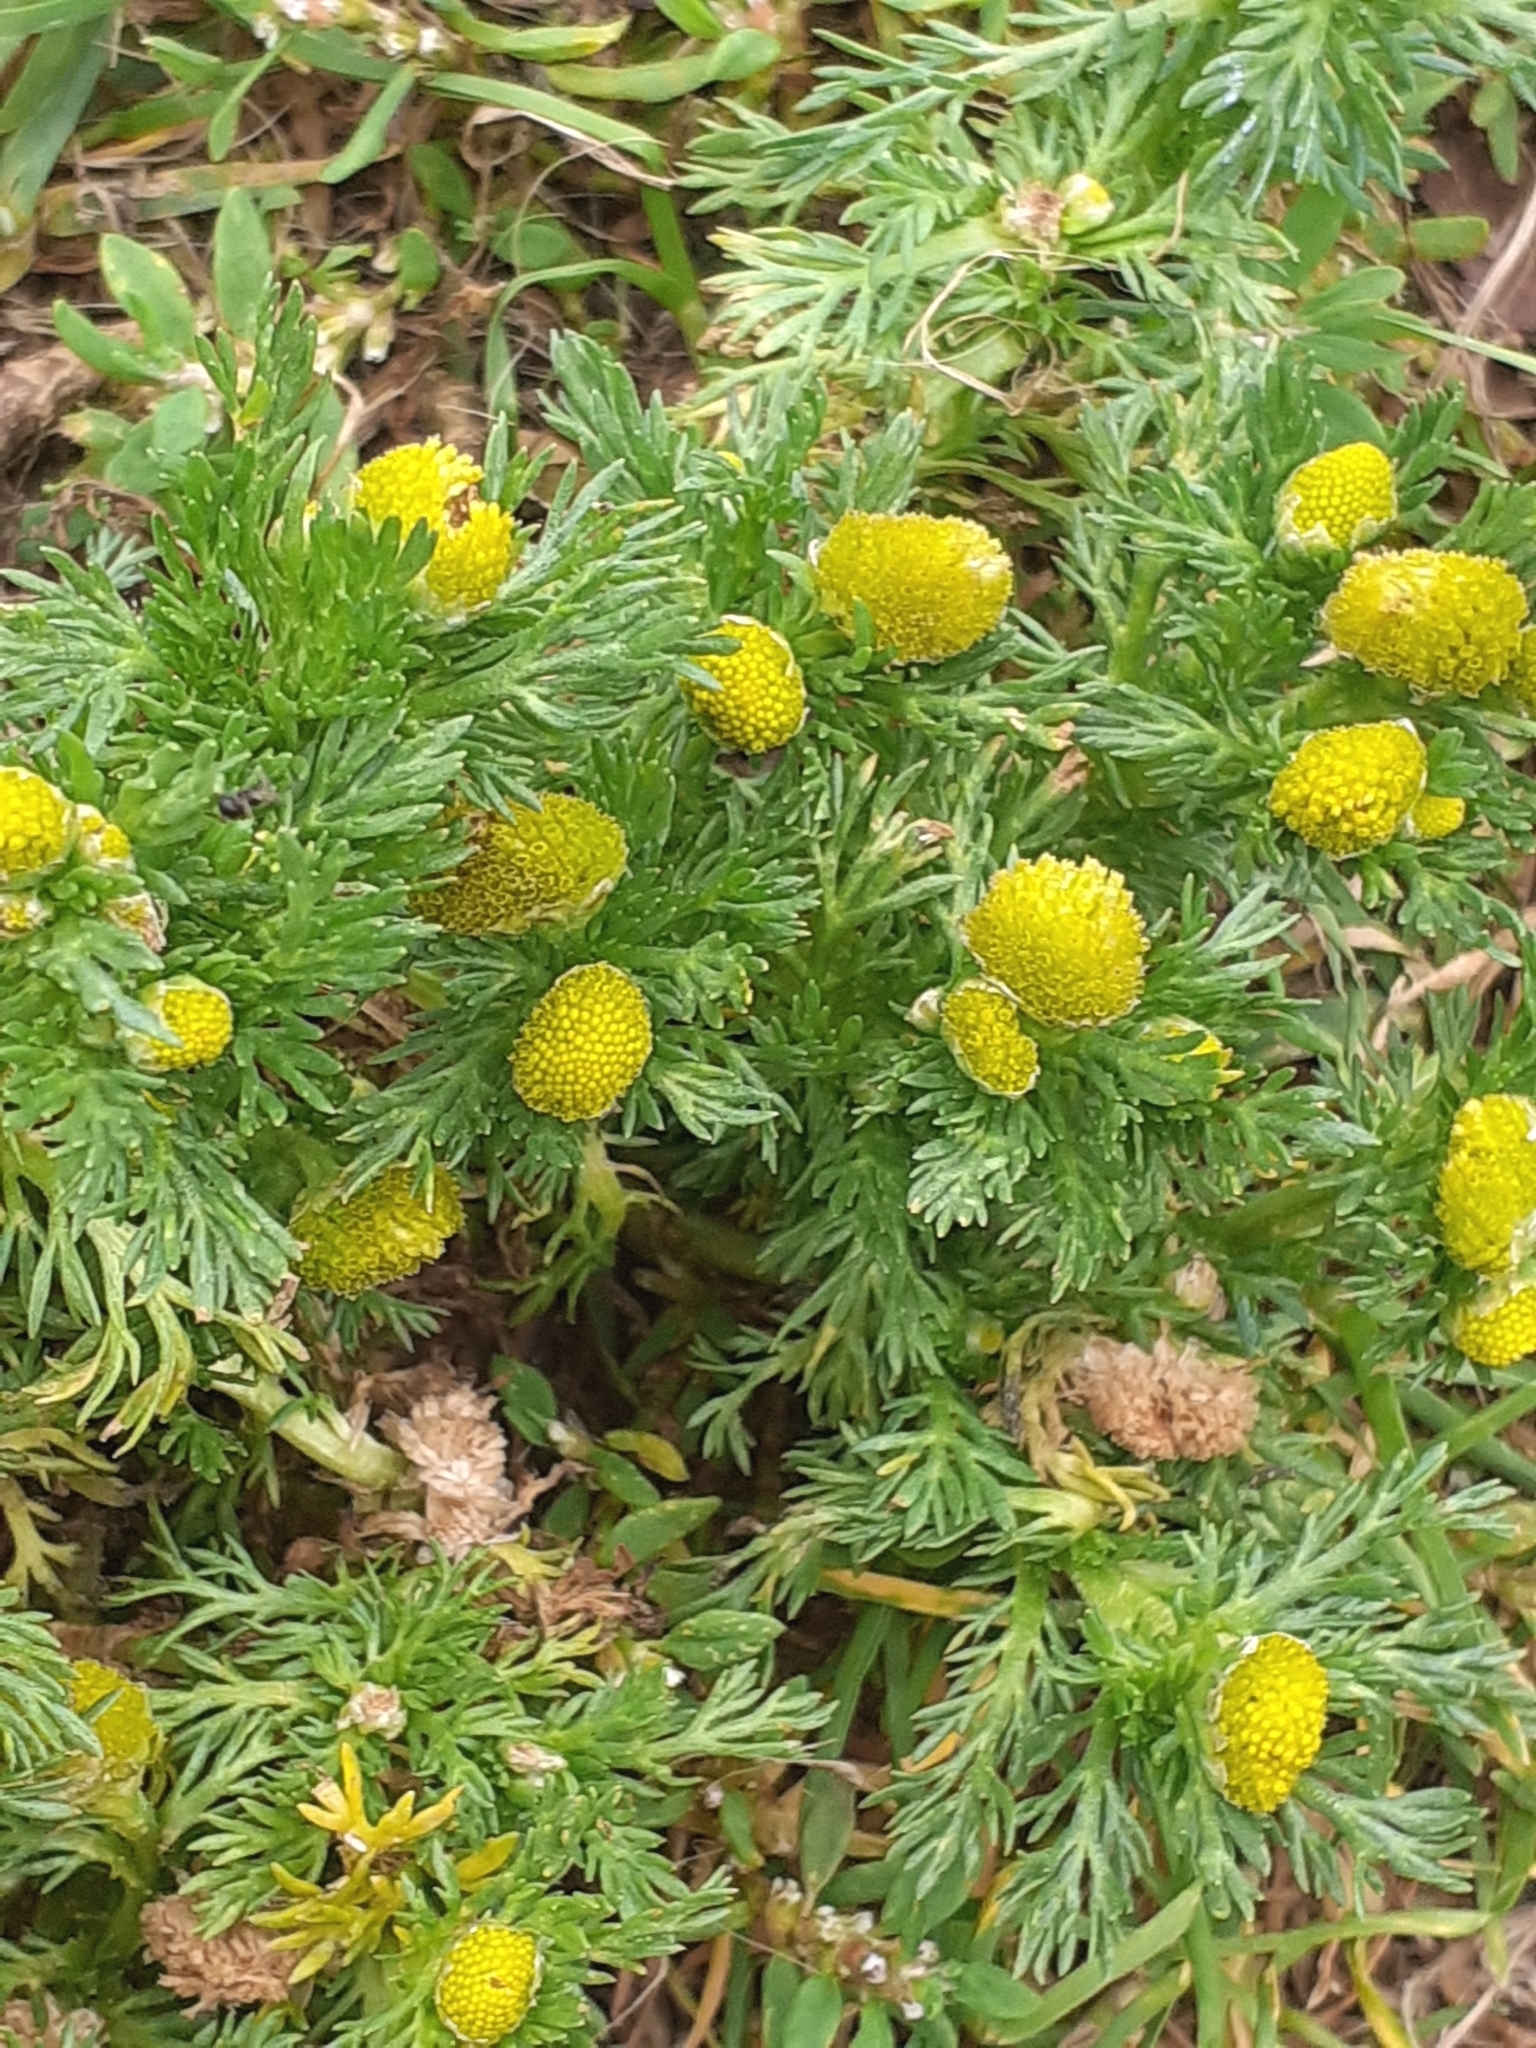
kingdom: Plantae
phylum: Tracheophyta
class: Magnoliopsida
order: Asterales
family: Asteraceae
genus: Matricaria
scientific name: Matricaria discoidea
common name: Disc mayweed
